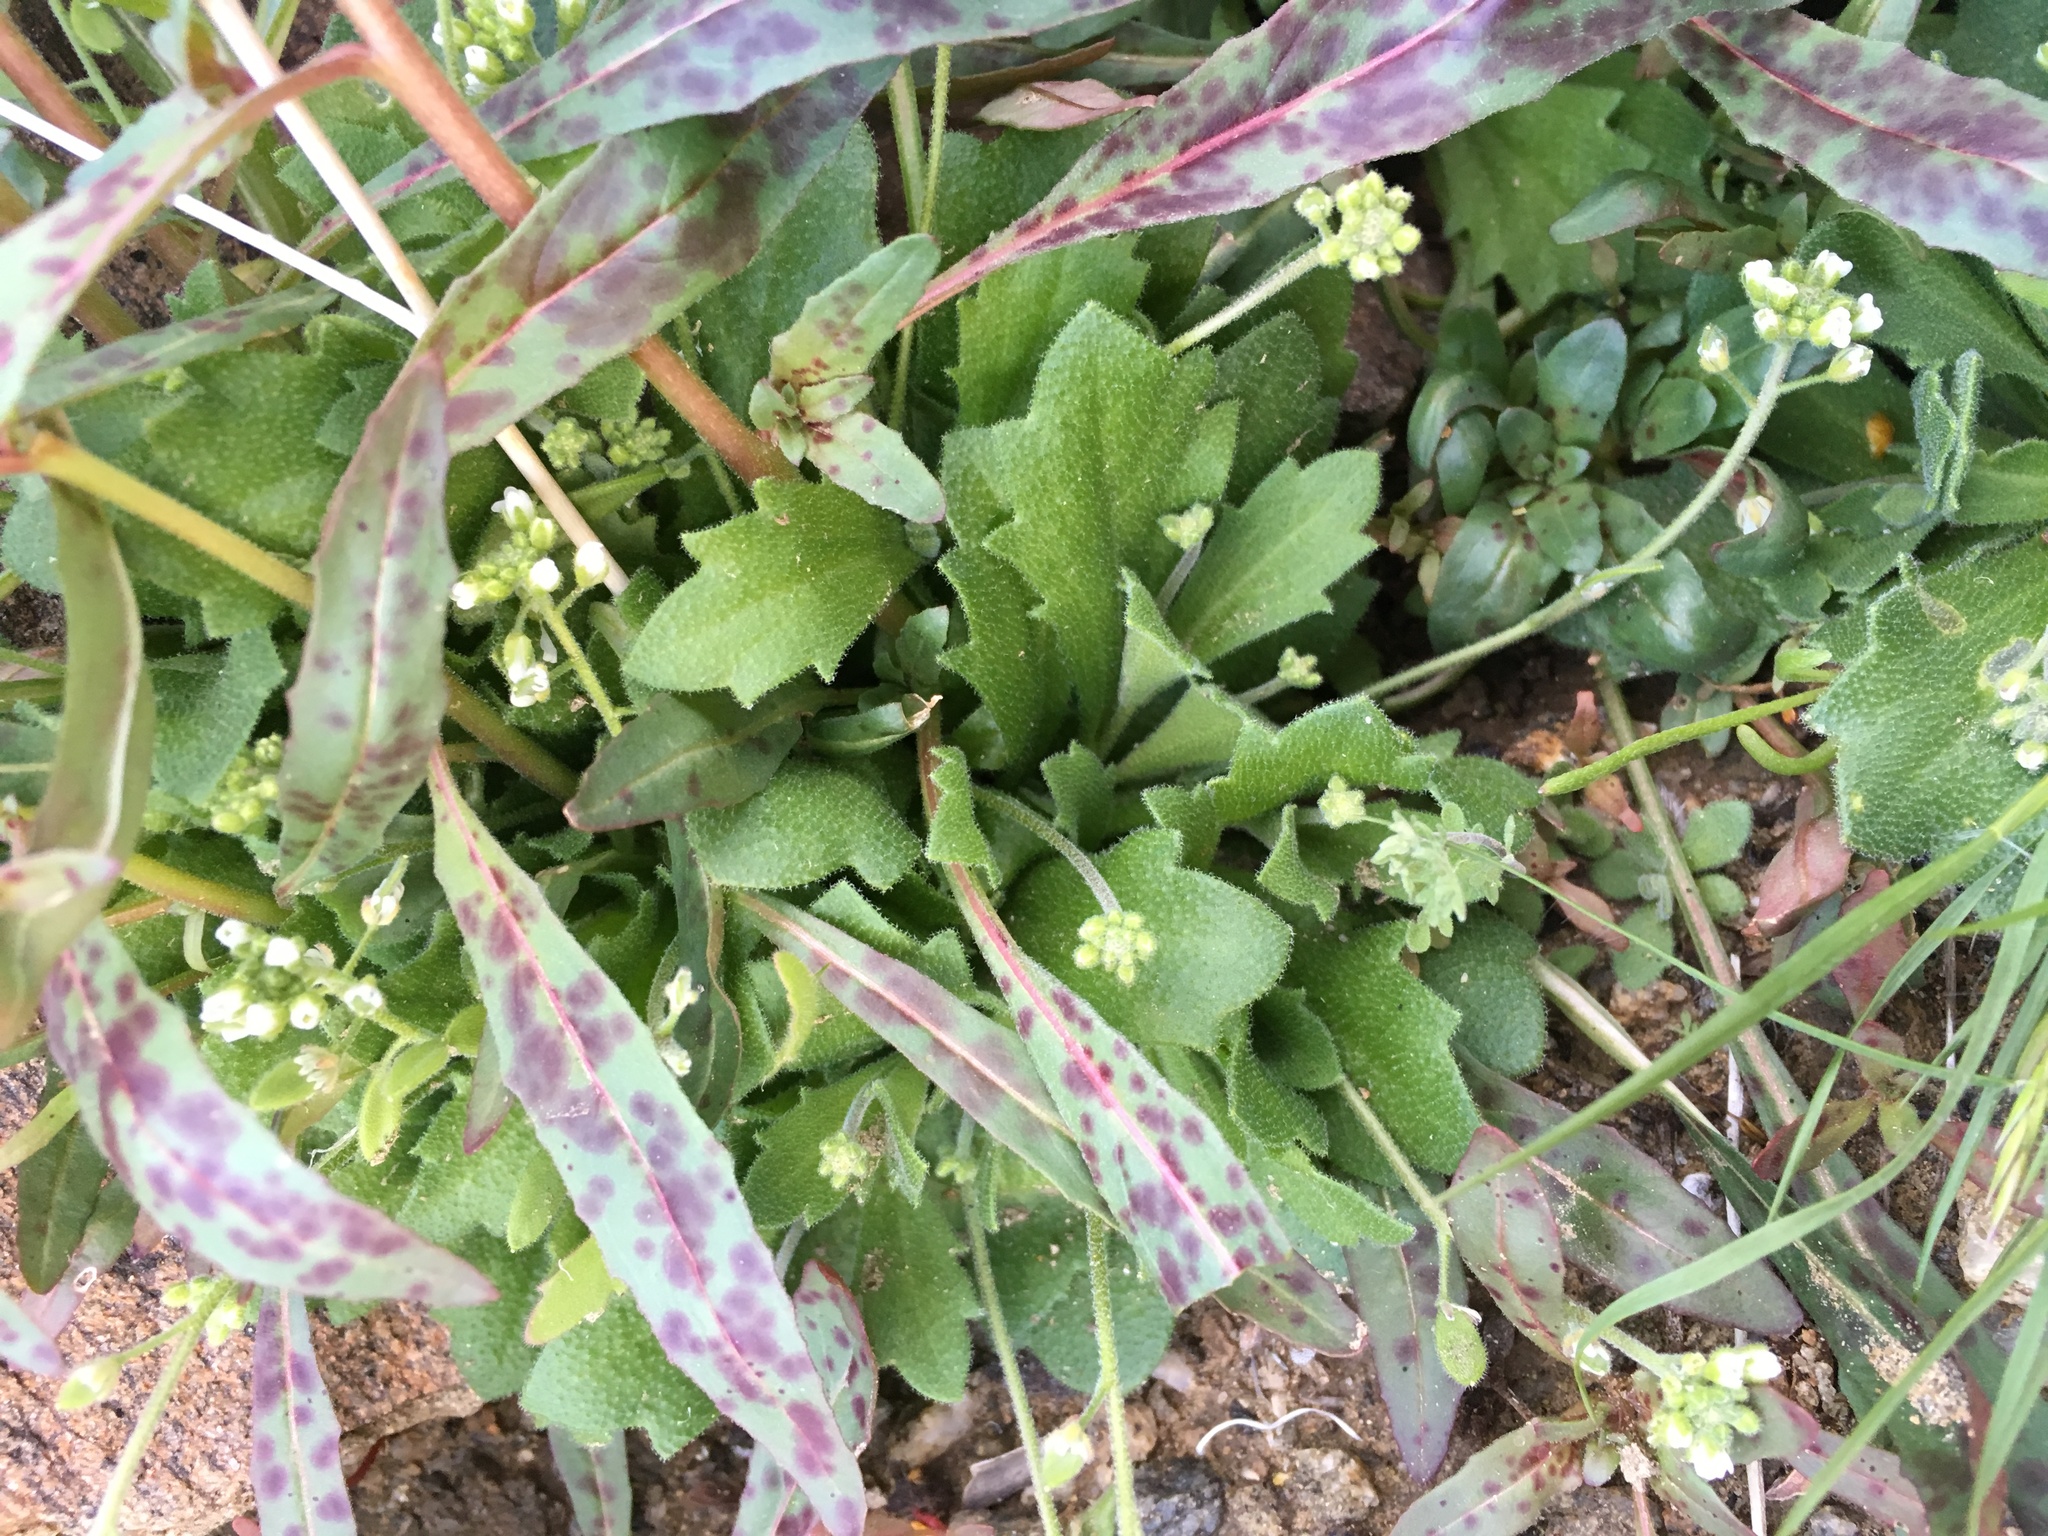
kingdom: Plantae
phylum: Tracheophyta
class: Magnoliopsida
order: Brassicales
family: Brassicaceae
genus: Tomostima
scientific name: Tomostima cuneifolia
